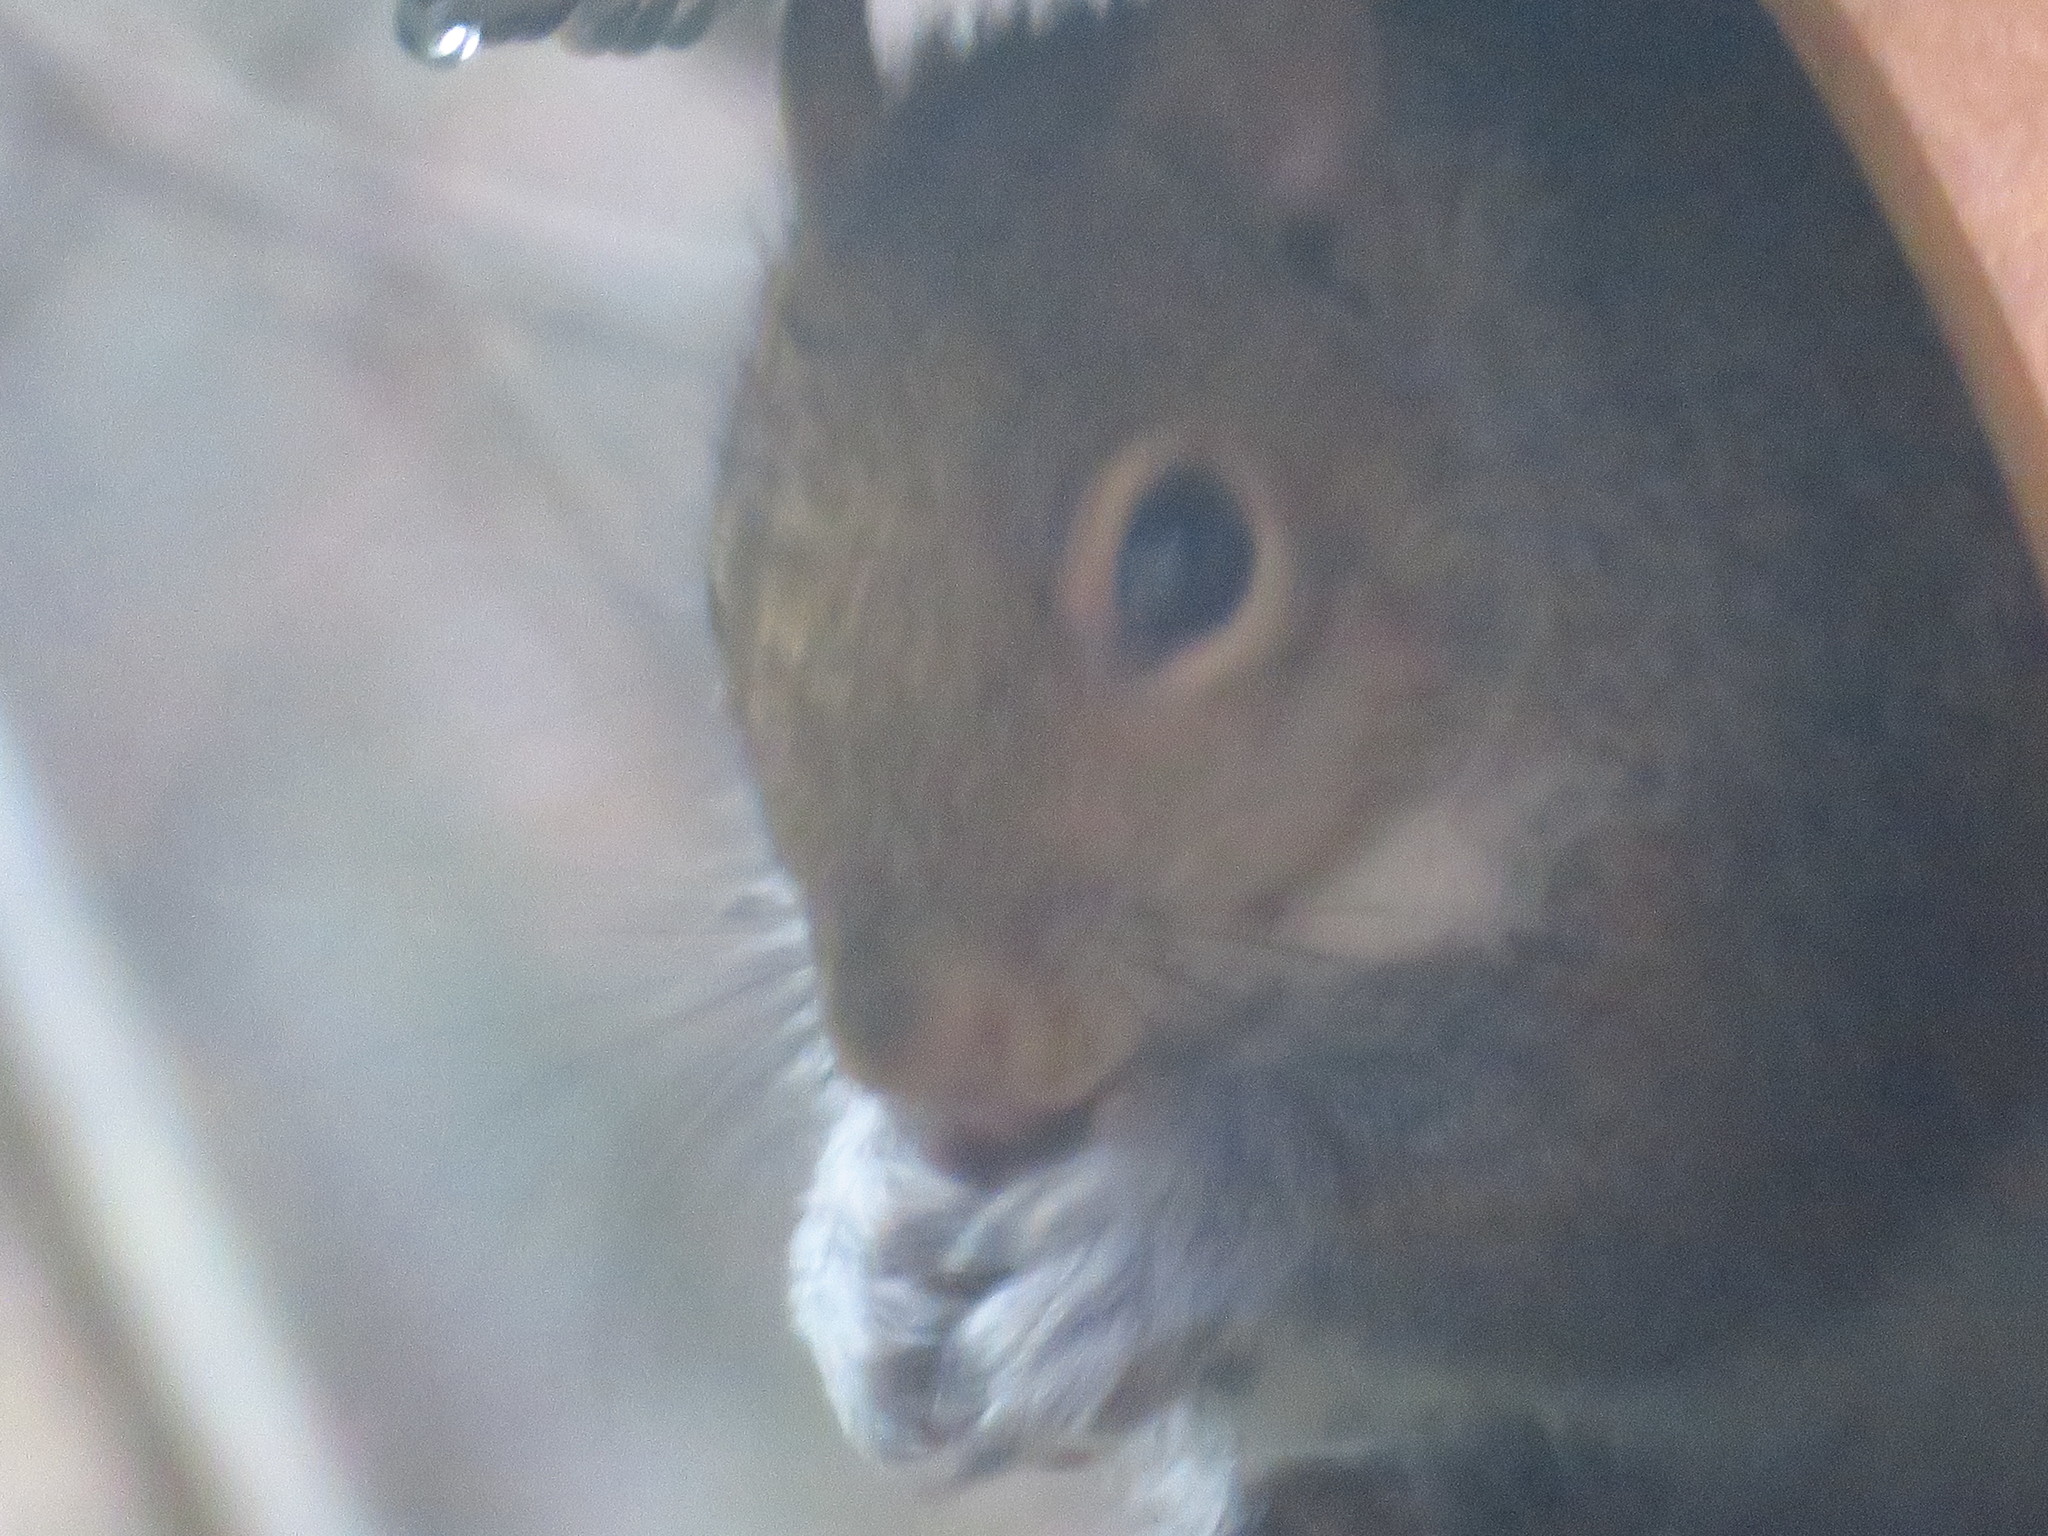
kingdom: Animalia
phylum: Chordata
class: Mammalia
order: Rodentia
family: Sciuridae
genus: Sciurus
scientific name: Sciurus carolinensis
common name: Eastern gray squirrel
